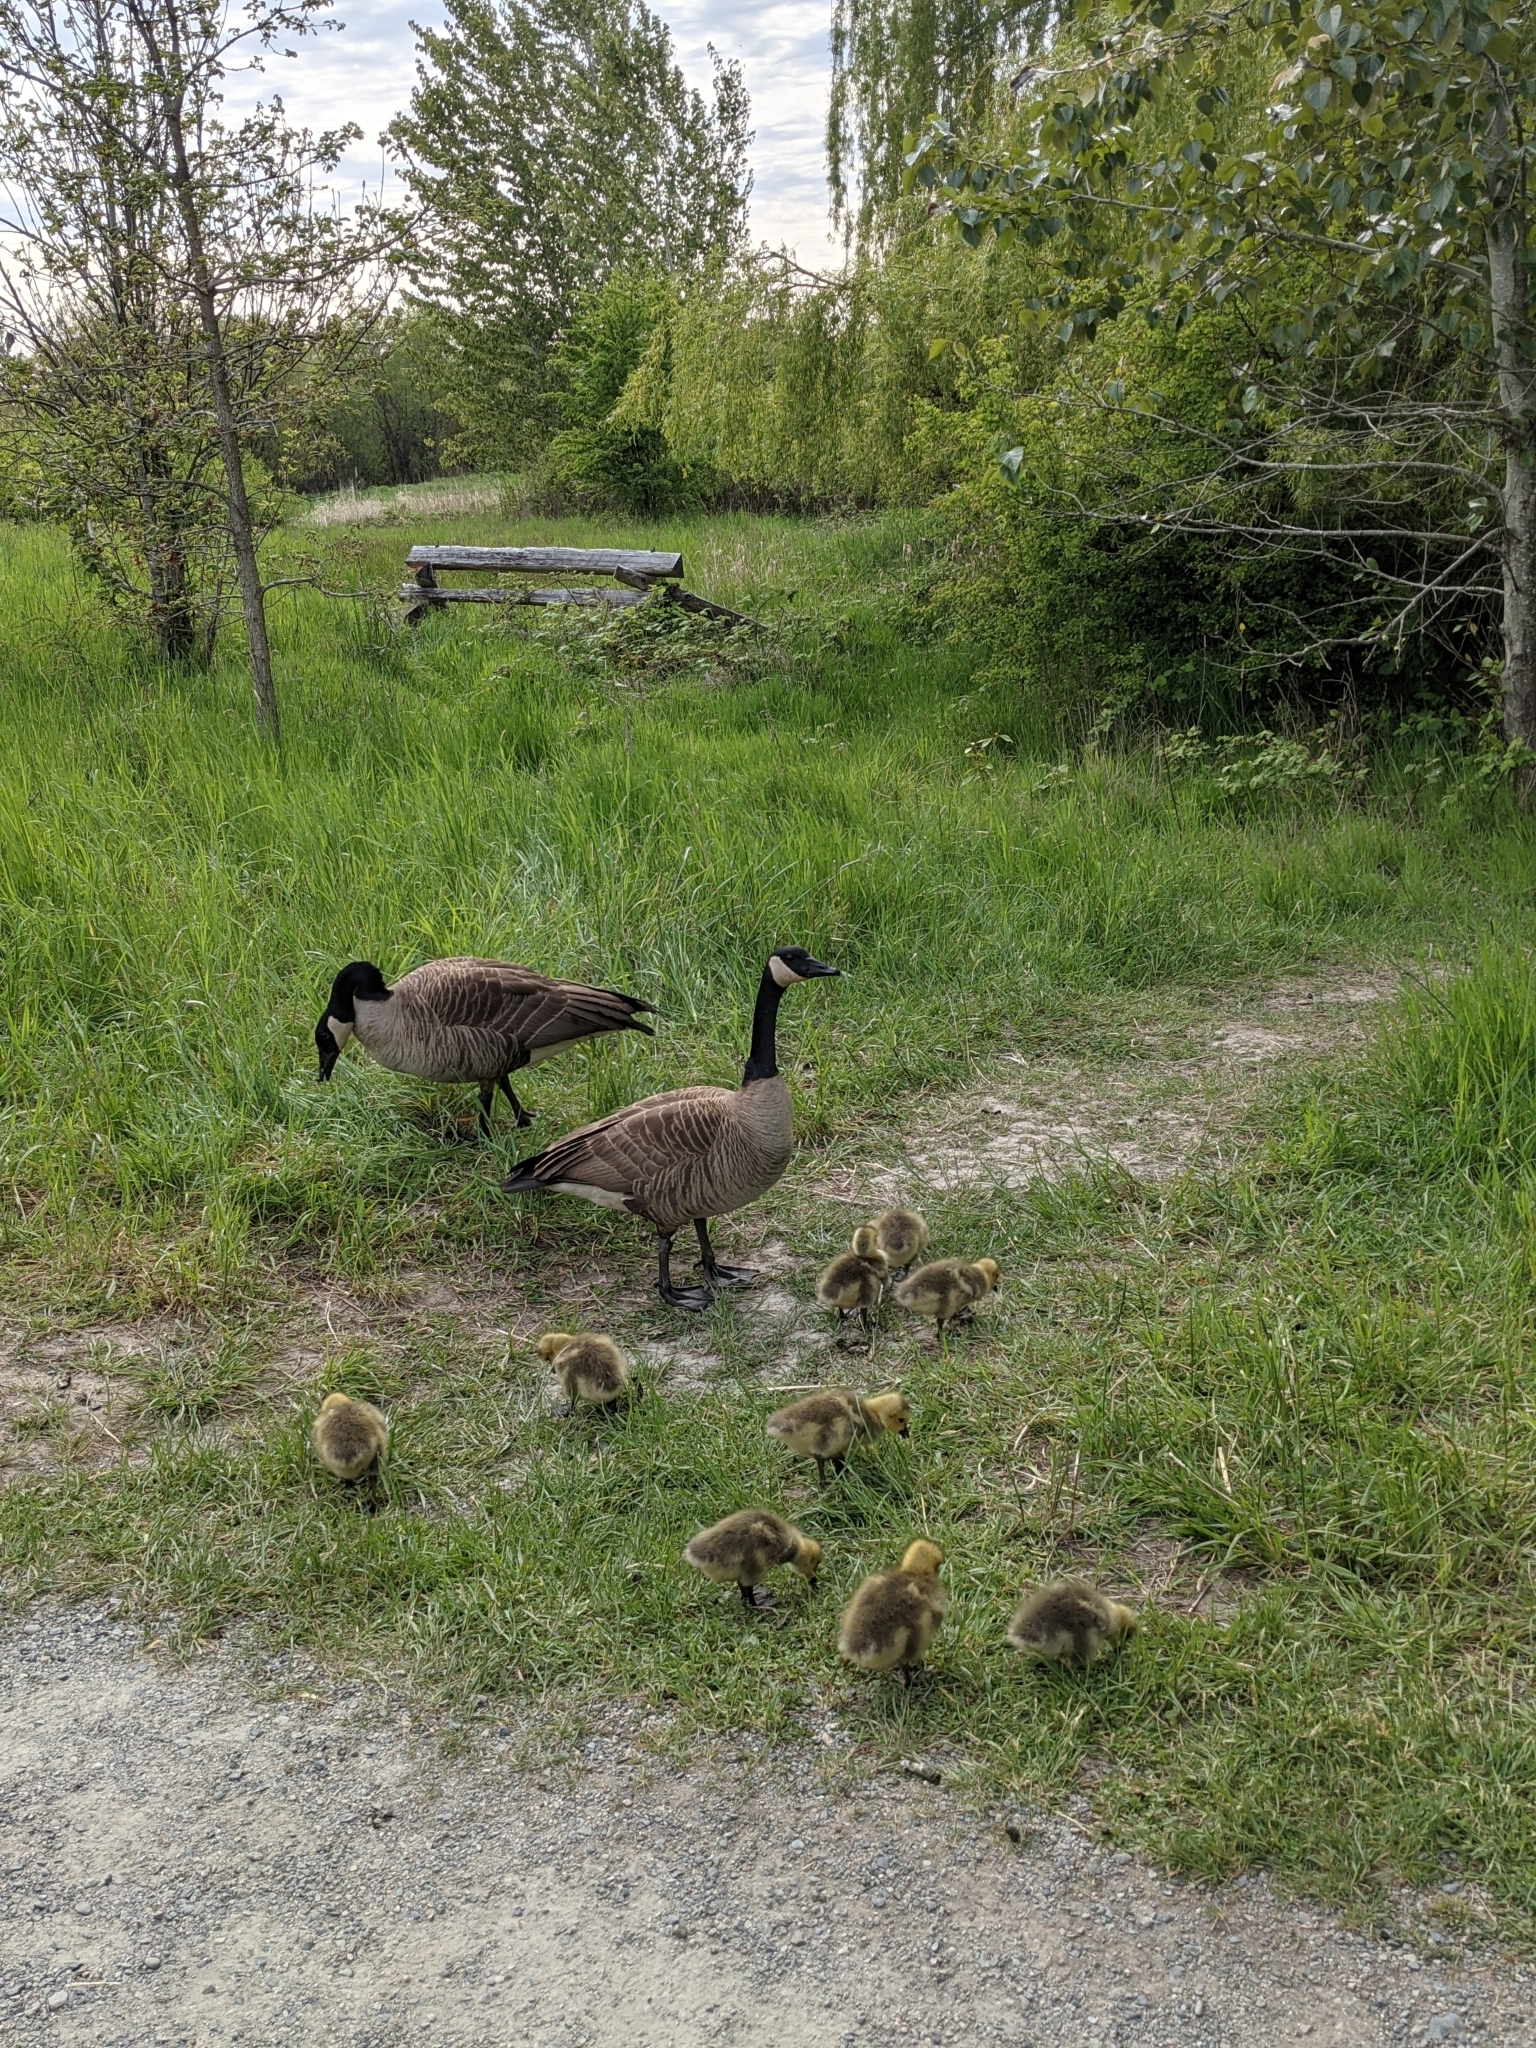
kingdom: Animalia
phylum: Chordata
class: Aves
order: Anseriformes
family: Anatidae
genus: Branta
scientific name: Branta canadensis
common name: Canada goose
